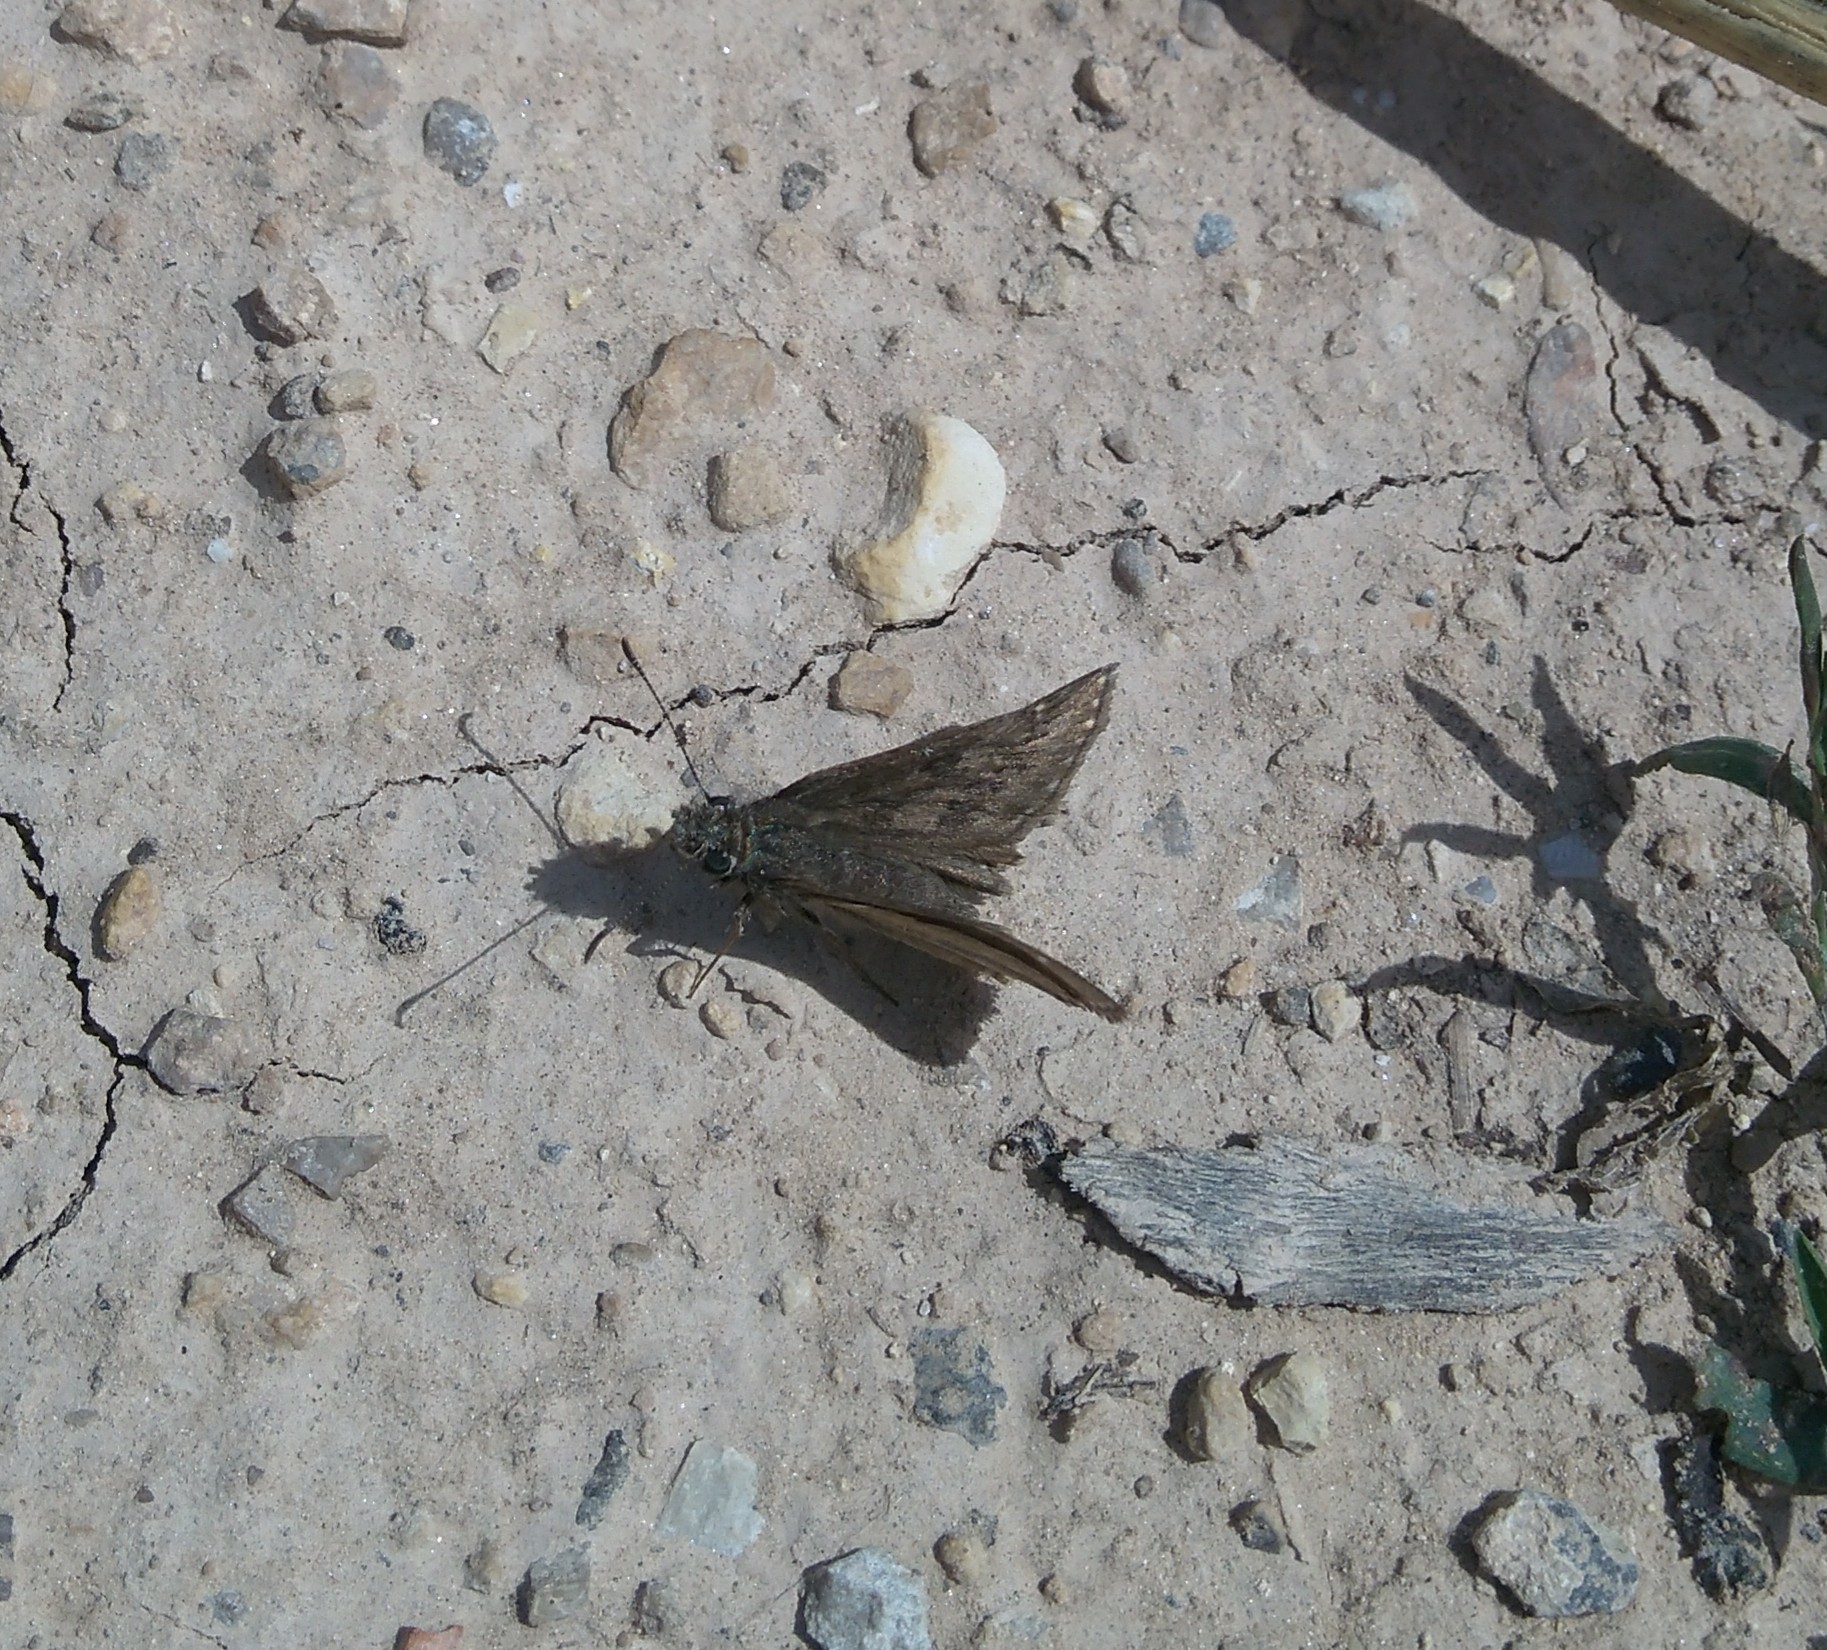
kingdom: Animalia
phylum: Arthropoda
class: Insecta
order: Lepidoptera
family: Hesperiidae
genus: Erynnis
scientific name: Erynnis tages
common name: Dingy skipper
